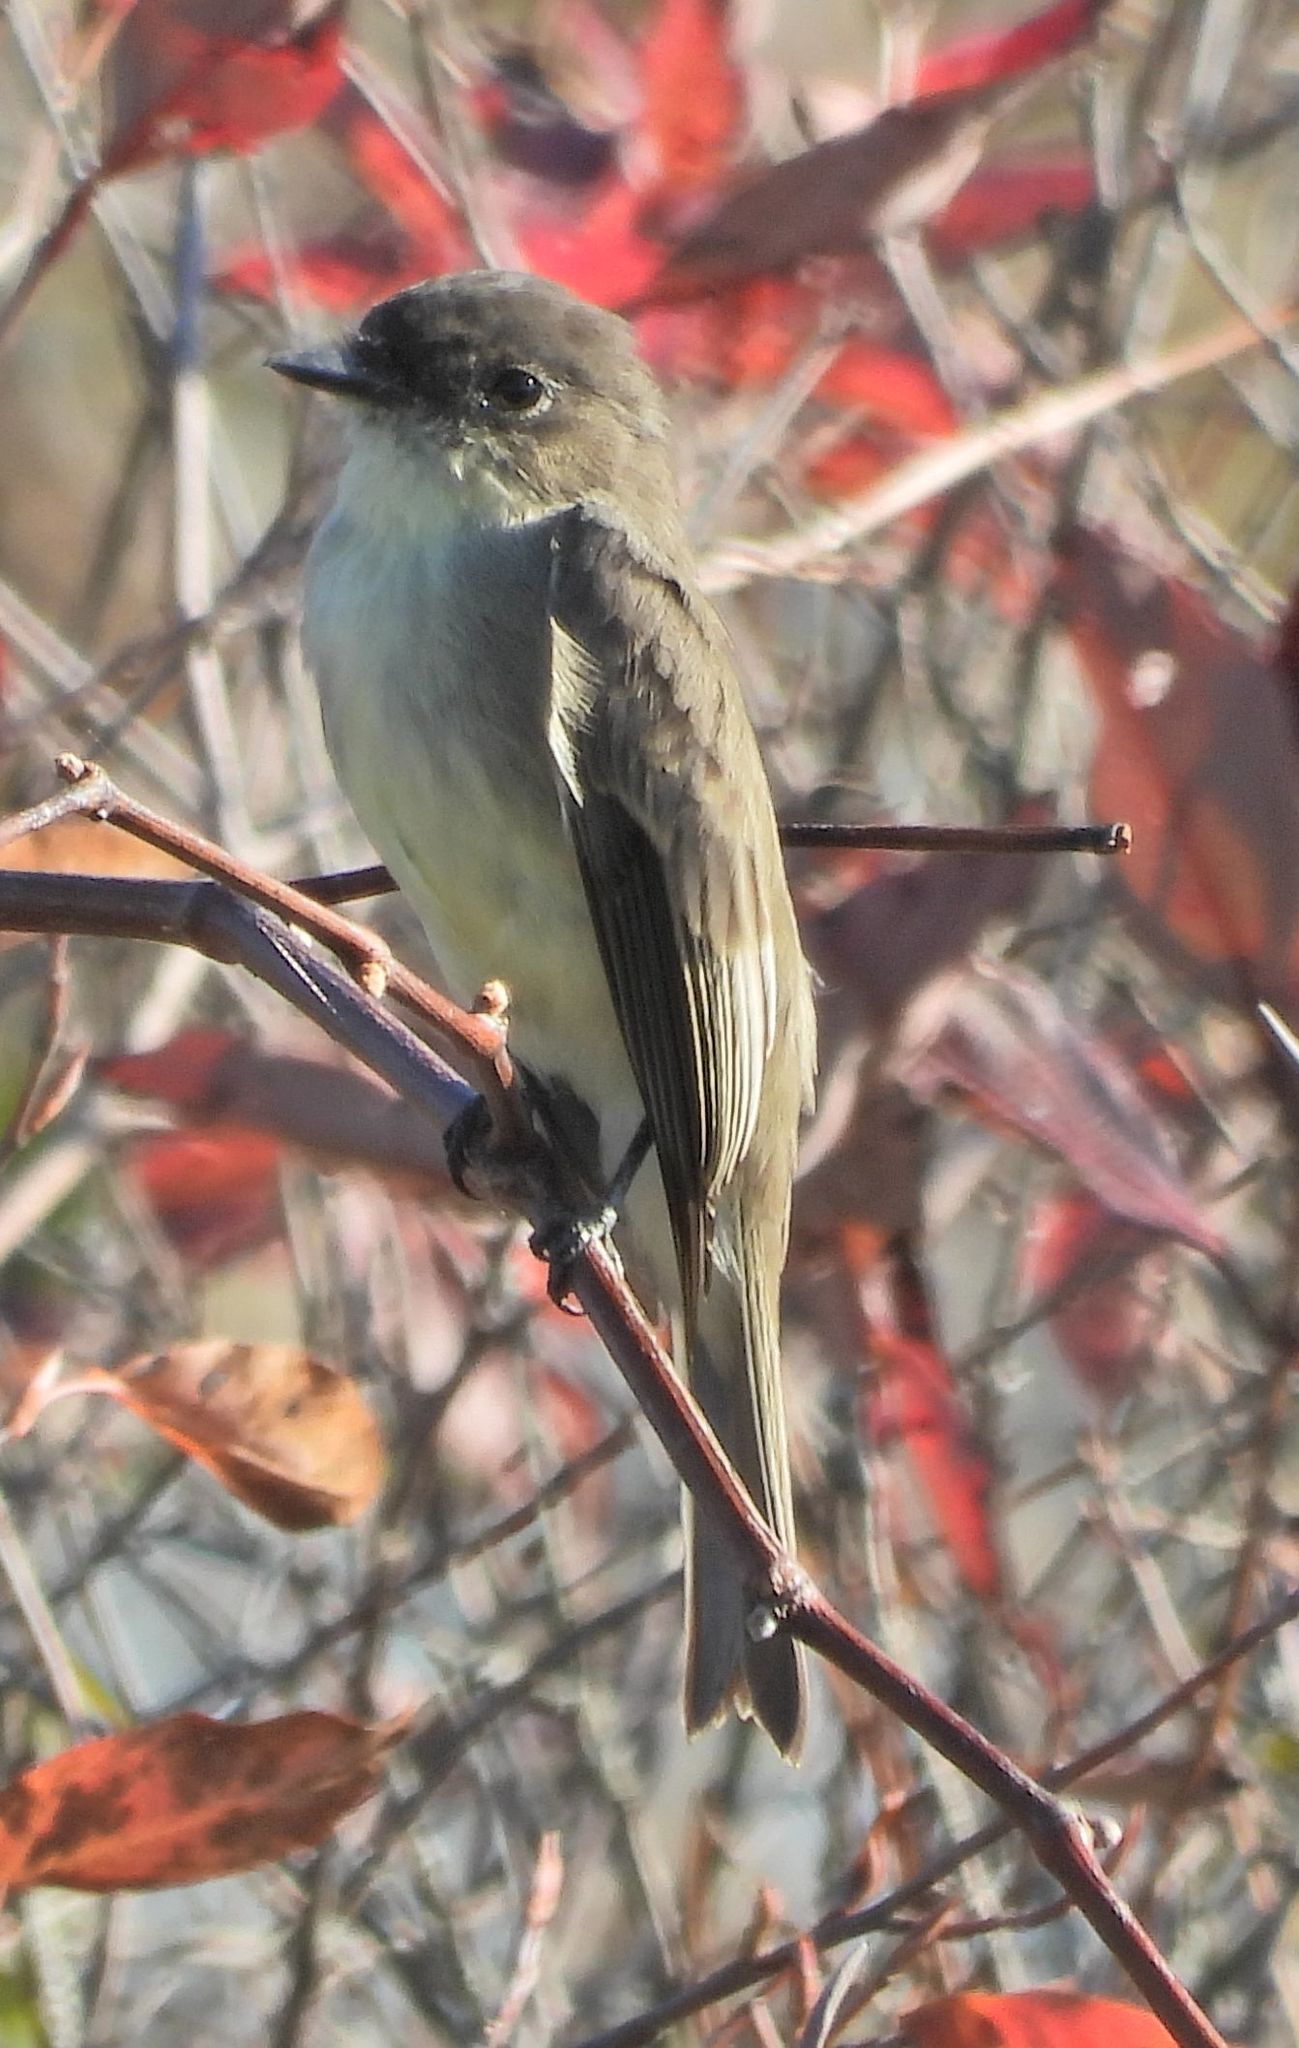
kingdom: Animalia
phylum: Chordata
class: Aves
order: Passeriformes
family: Tyrannidae
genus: Sayornis
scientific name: Sayornis phoebe
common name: Eastern phoebe
